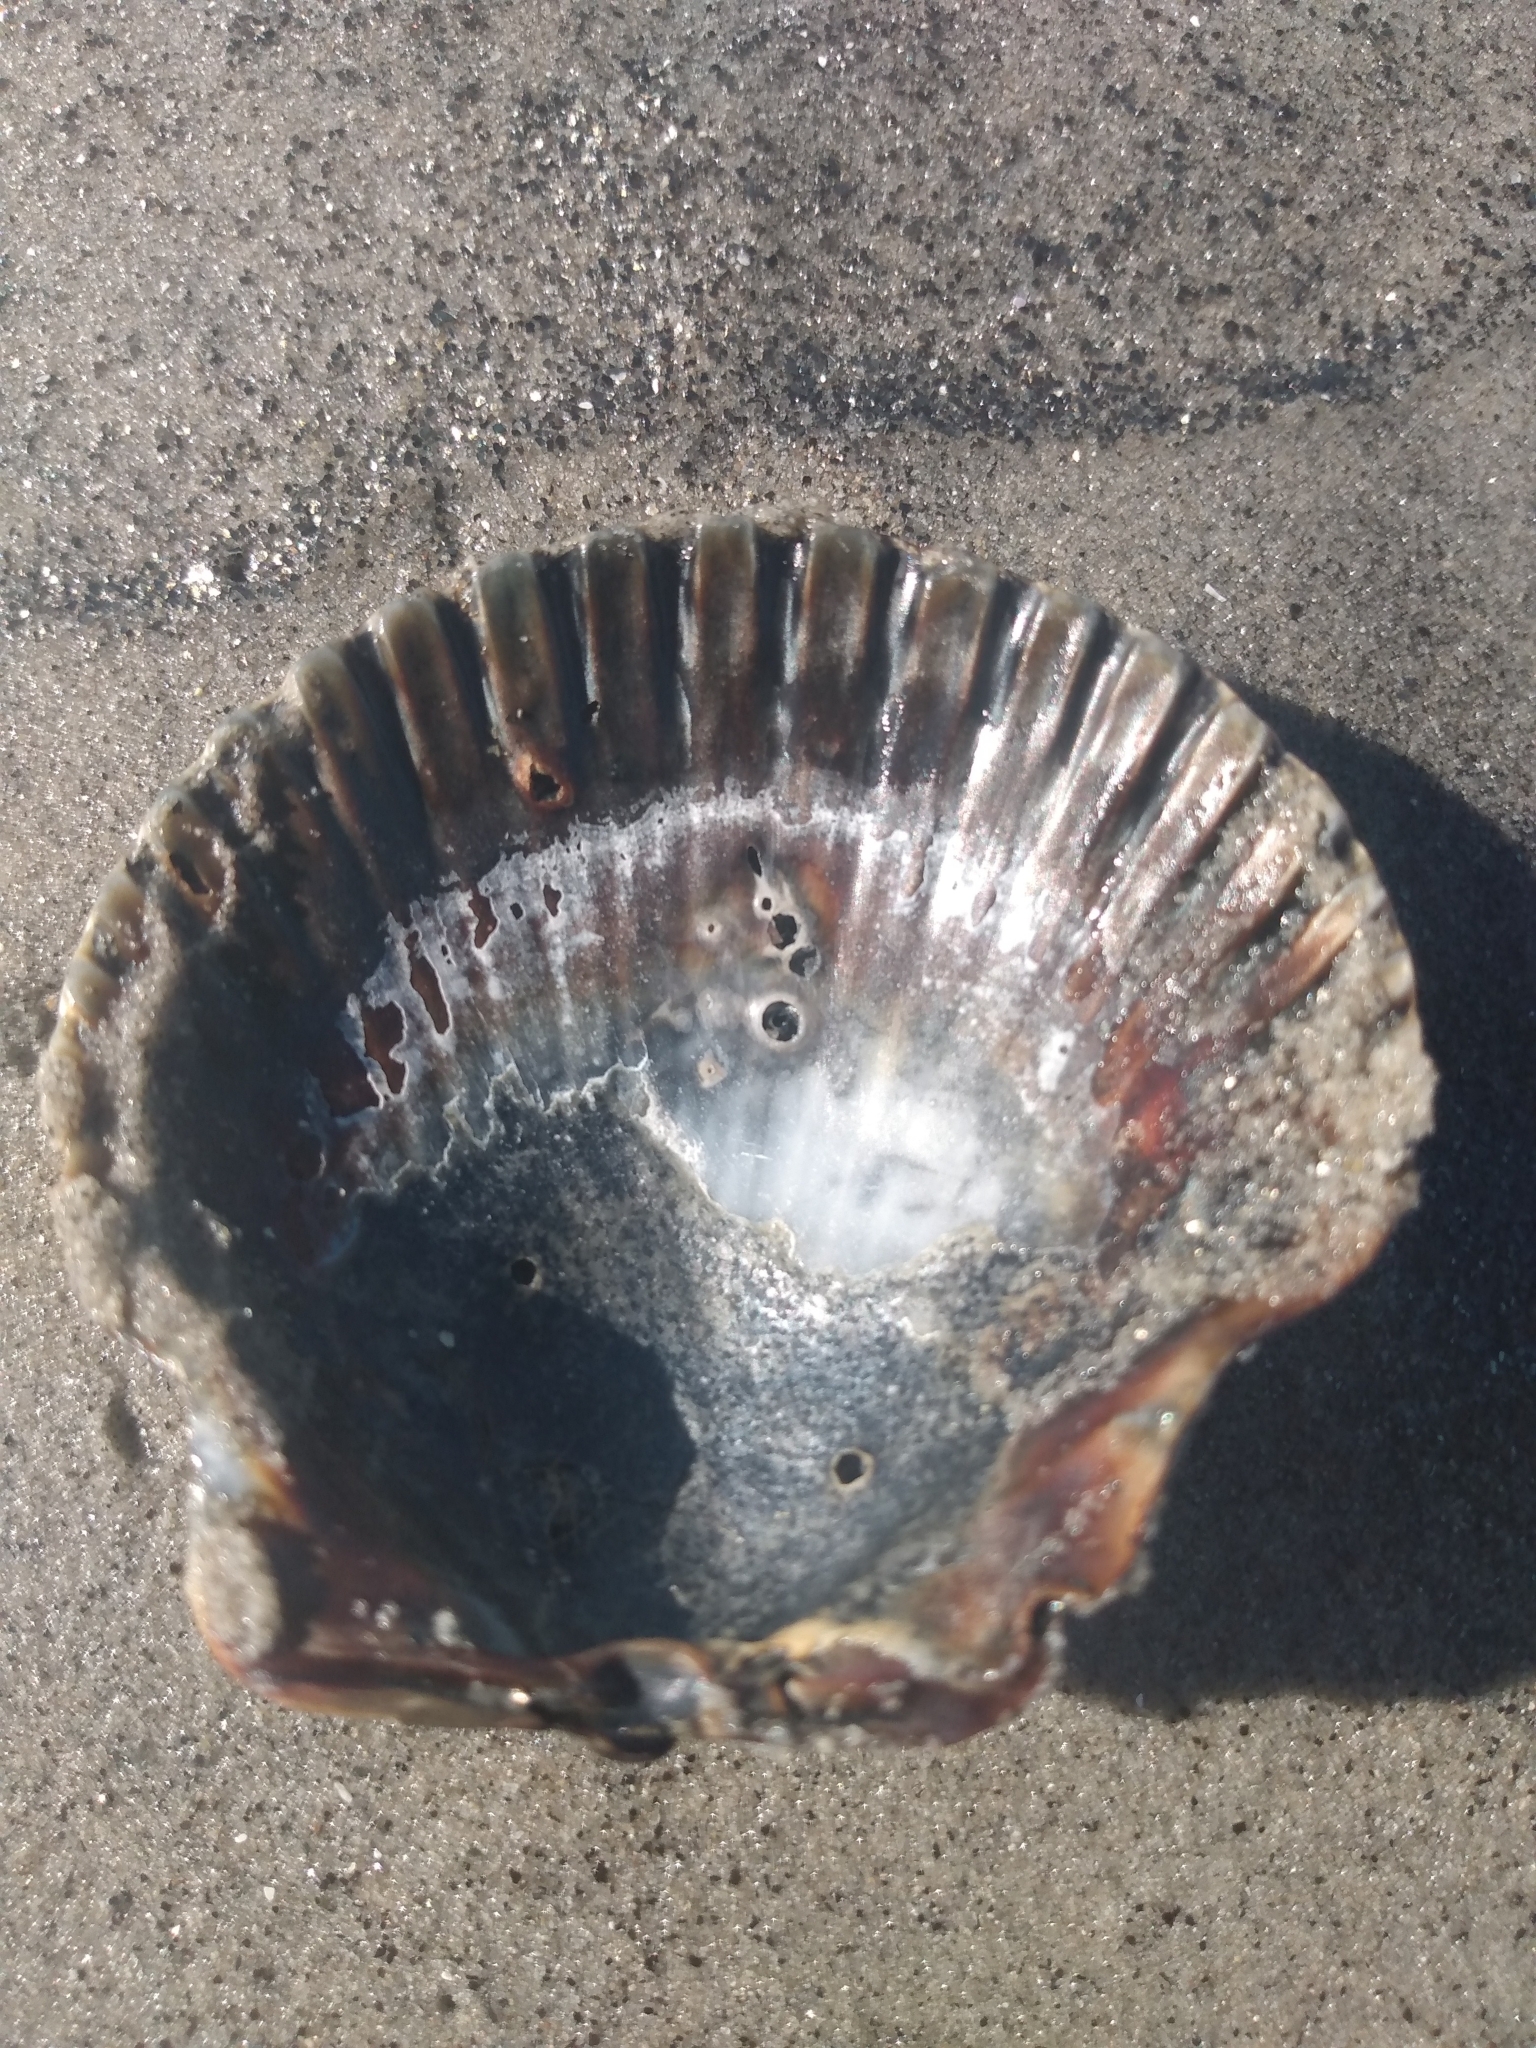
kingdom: Animalia
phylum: Mollusca
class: Bivalvia
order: Pectinida
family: Pectinidae
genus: Argopecten
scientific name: Argopecten ventricosus
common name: Catarina scallop
